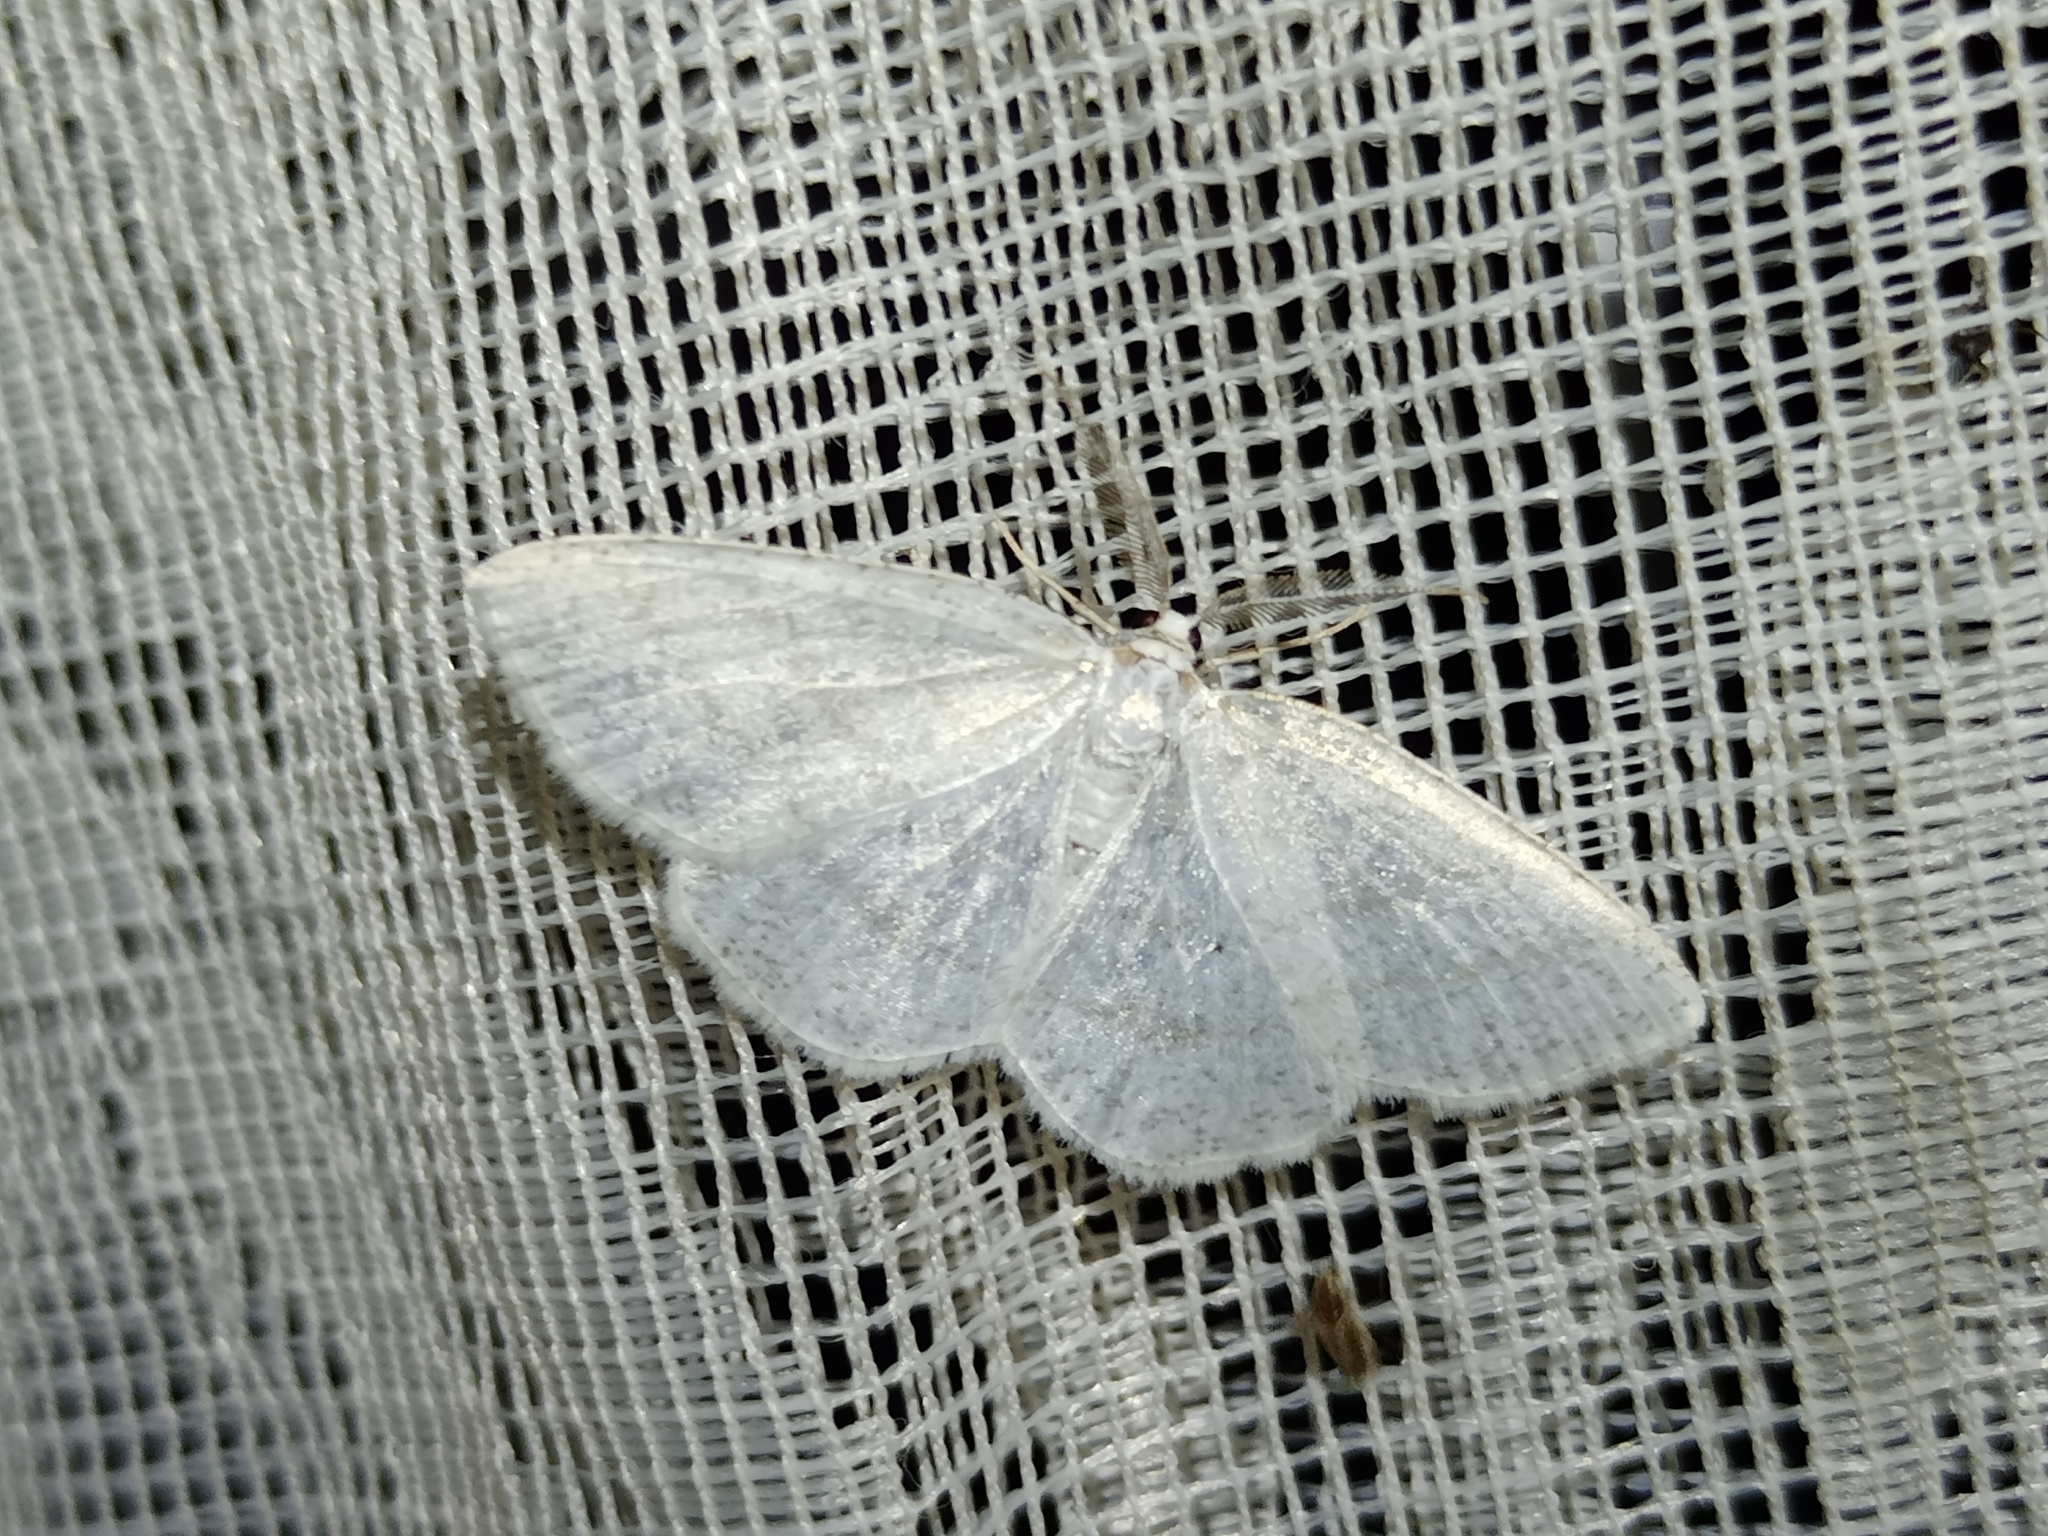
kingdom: Animalia
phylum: Arthropoda
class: Insecta
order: Lepidoptera
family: Geometridae
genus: Cabera
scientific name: Cabera pusaria
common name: Common white wave
